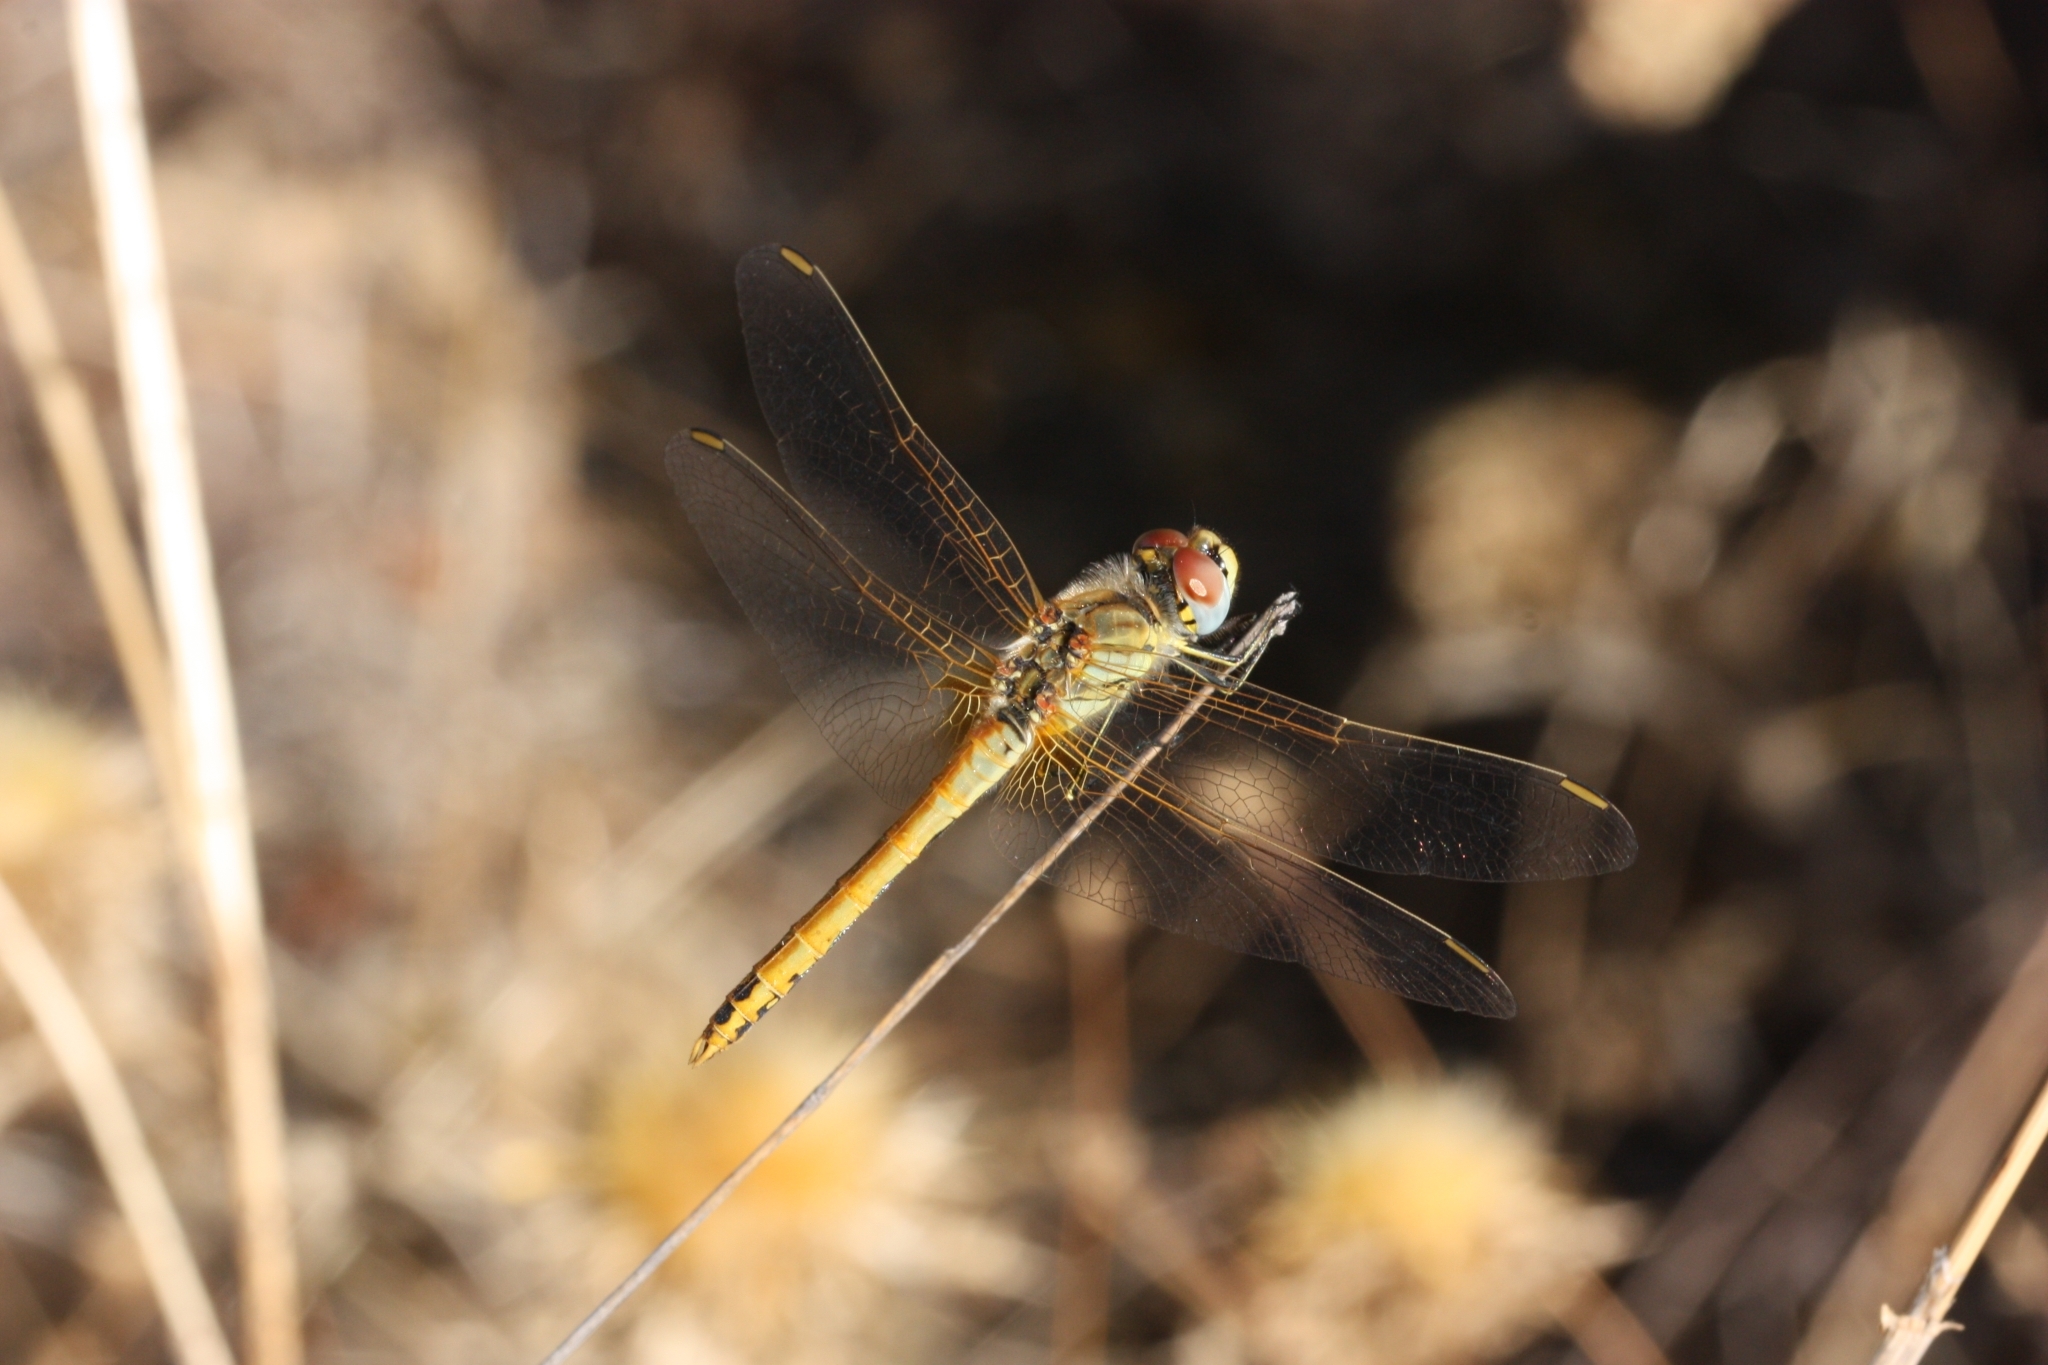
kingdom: Animalia
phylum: Arthropoda
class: Insecta
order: Odonata
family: Libellulidae
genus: Sympetrum
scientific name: Sympetrum fonscolombii
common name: Red-veined darter
